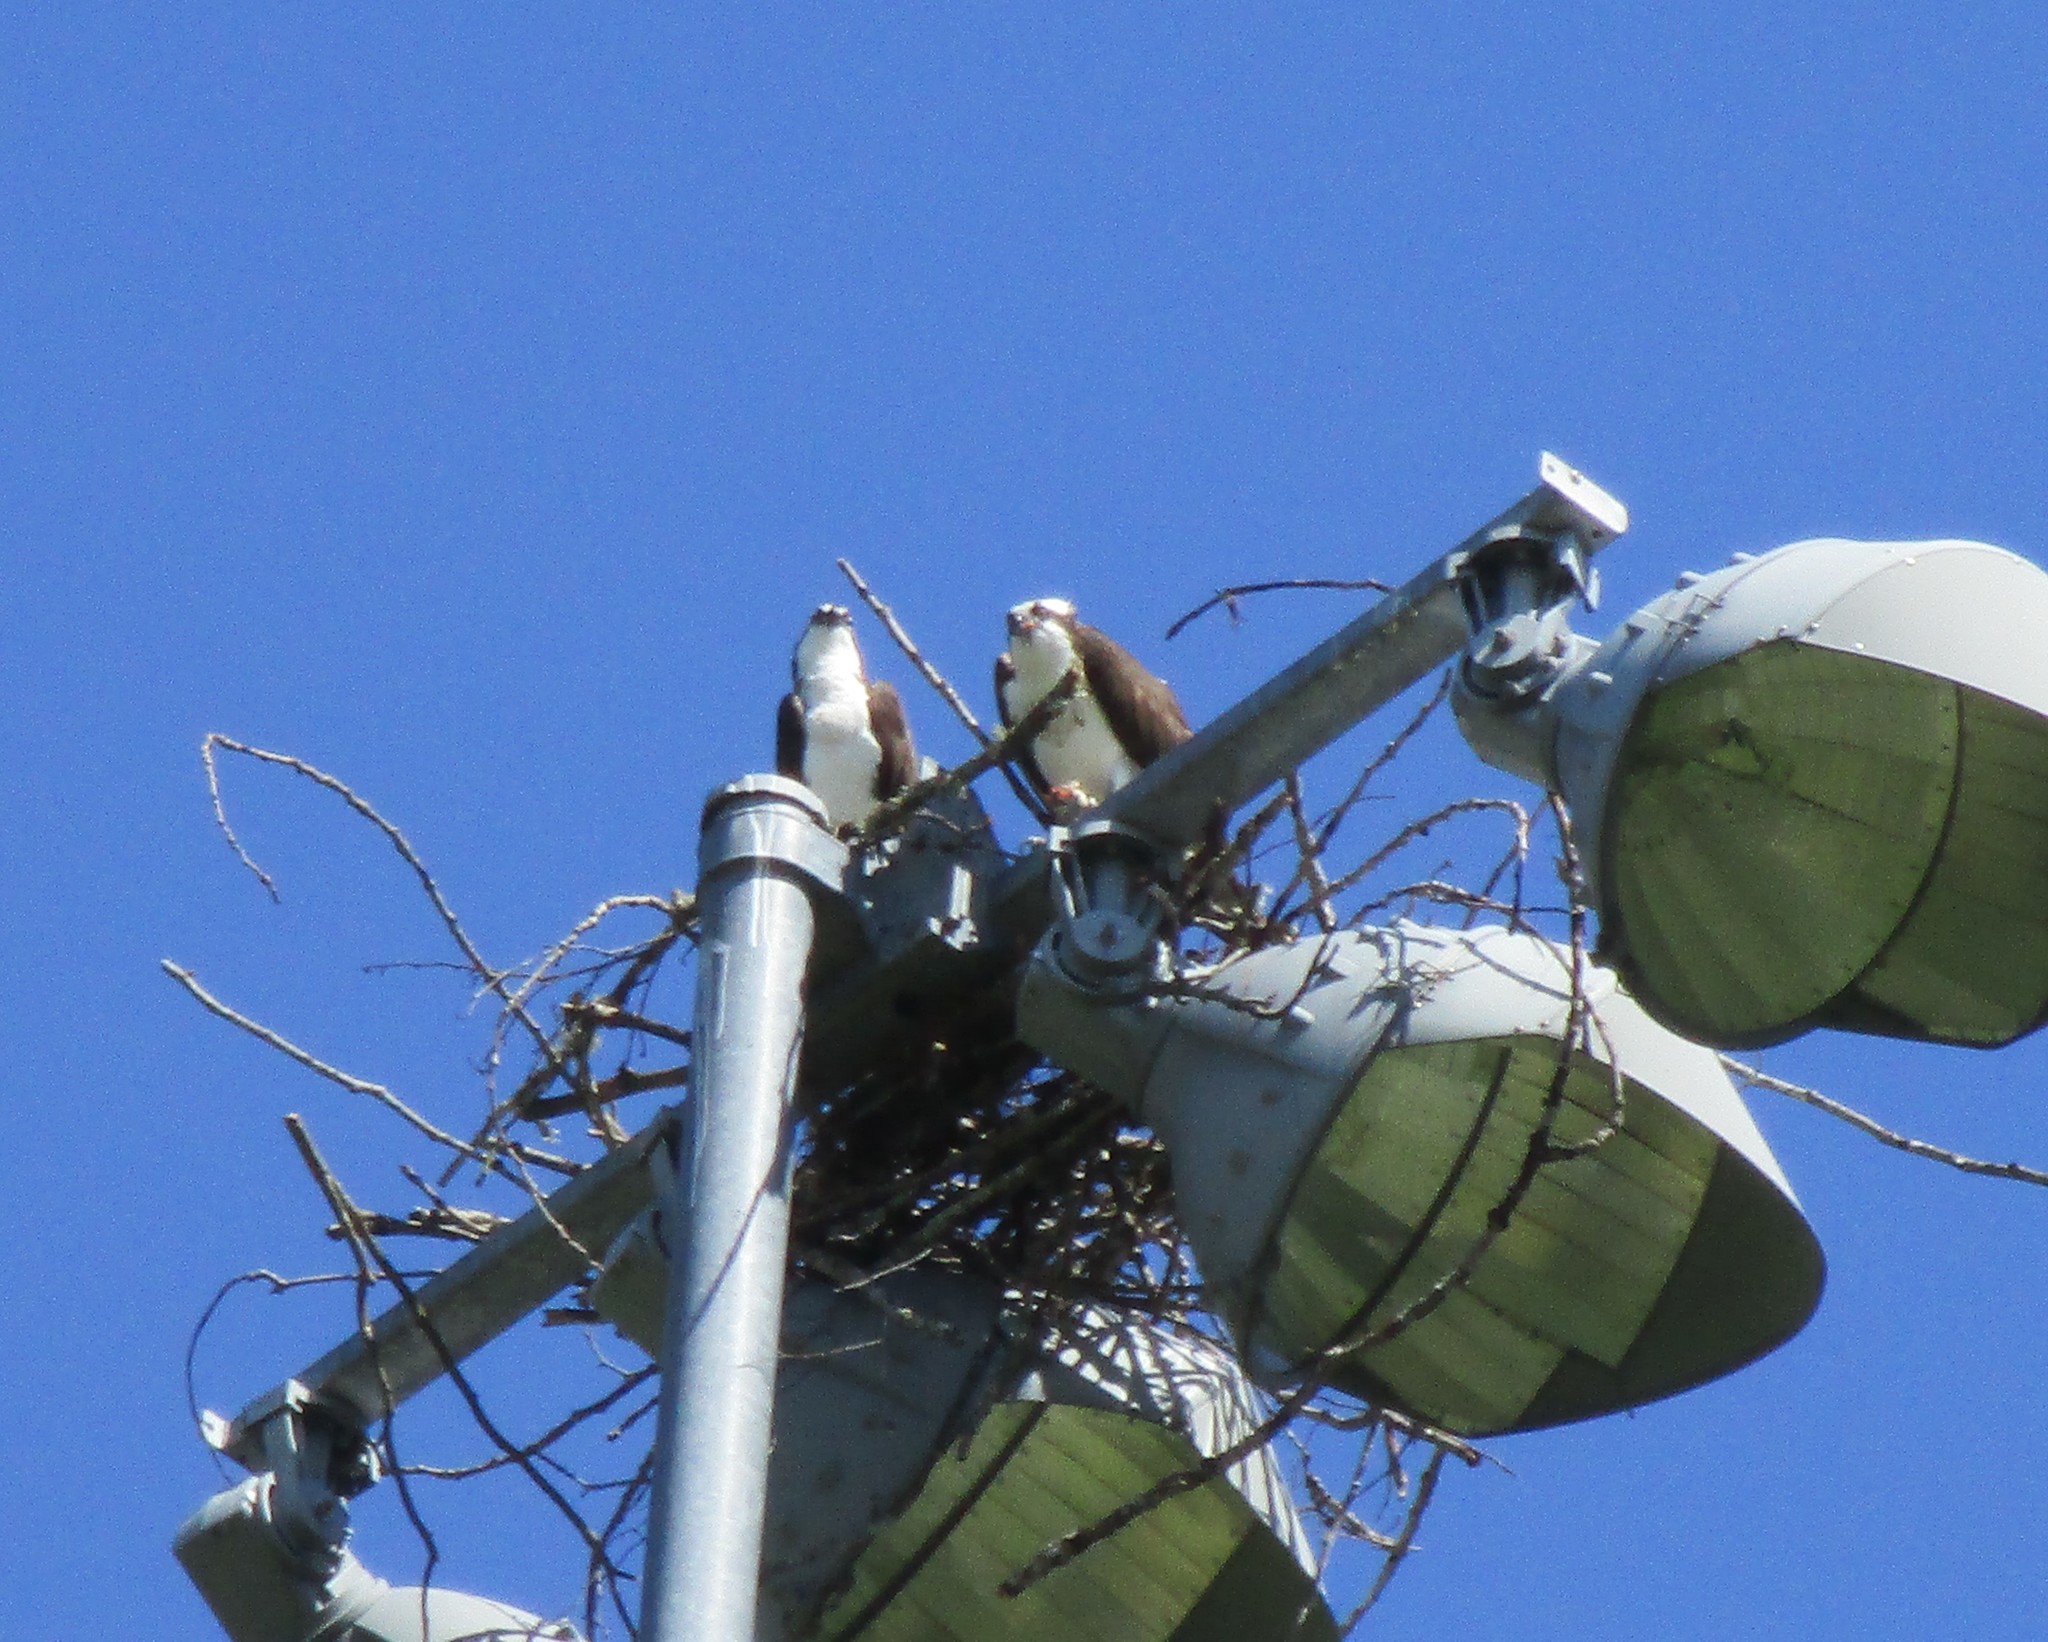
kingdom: Animalia
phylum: Chordata
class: Aves
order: Accipitriformes
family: Pandionidae
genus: Pandion
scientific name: Pandion haliaetus
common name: Osprey
